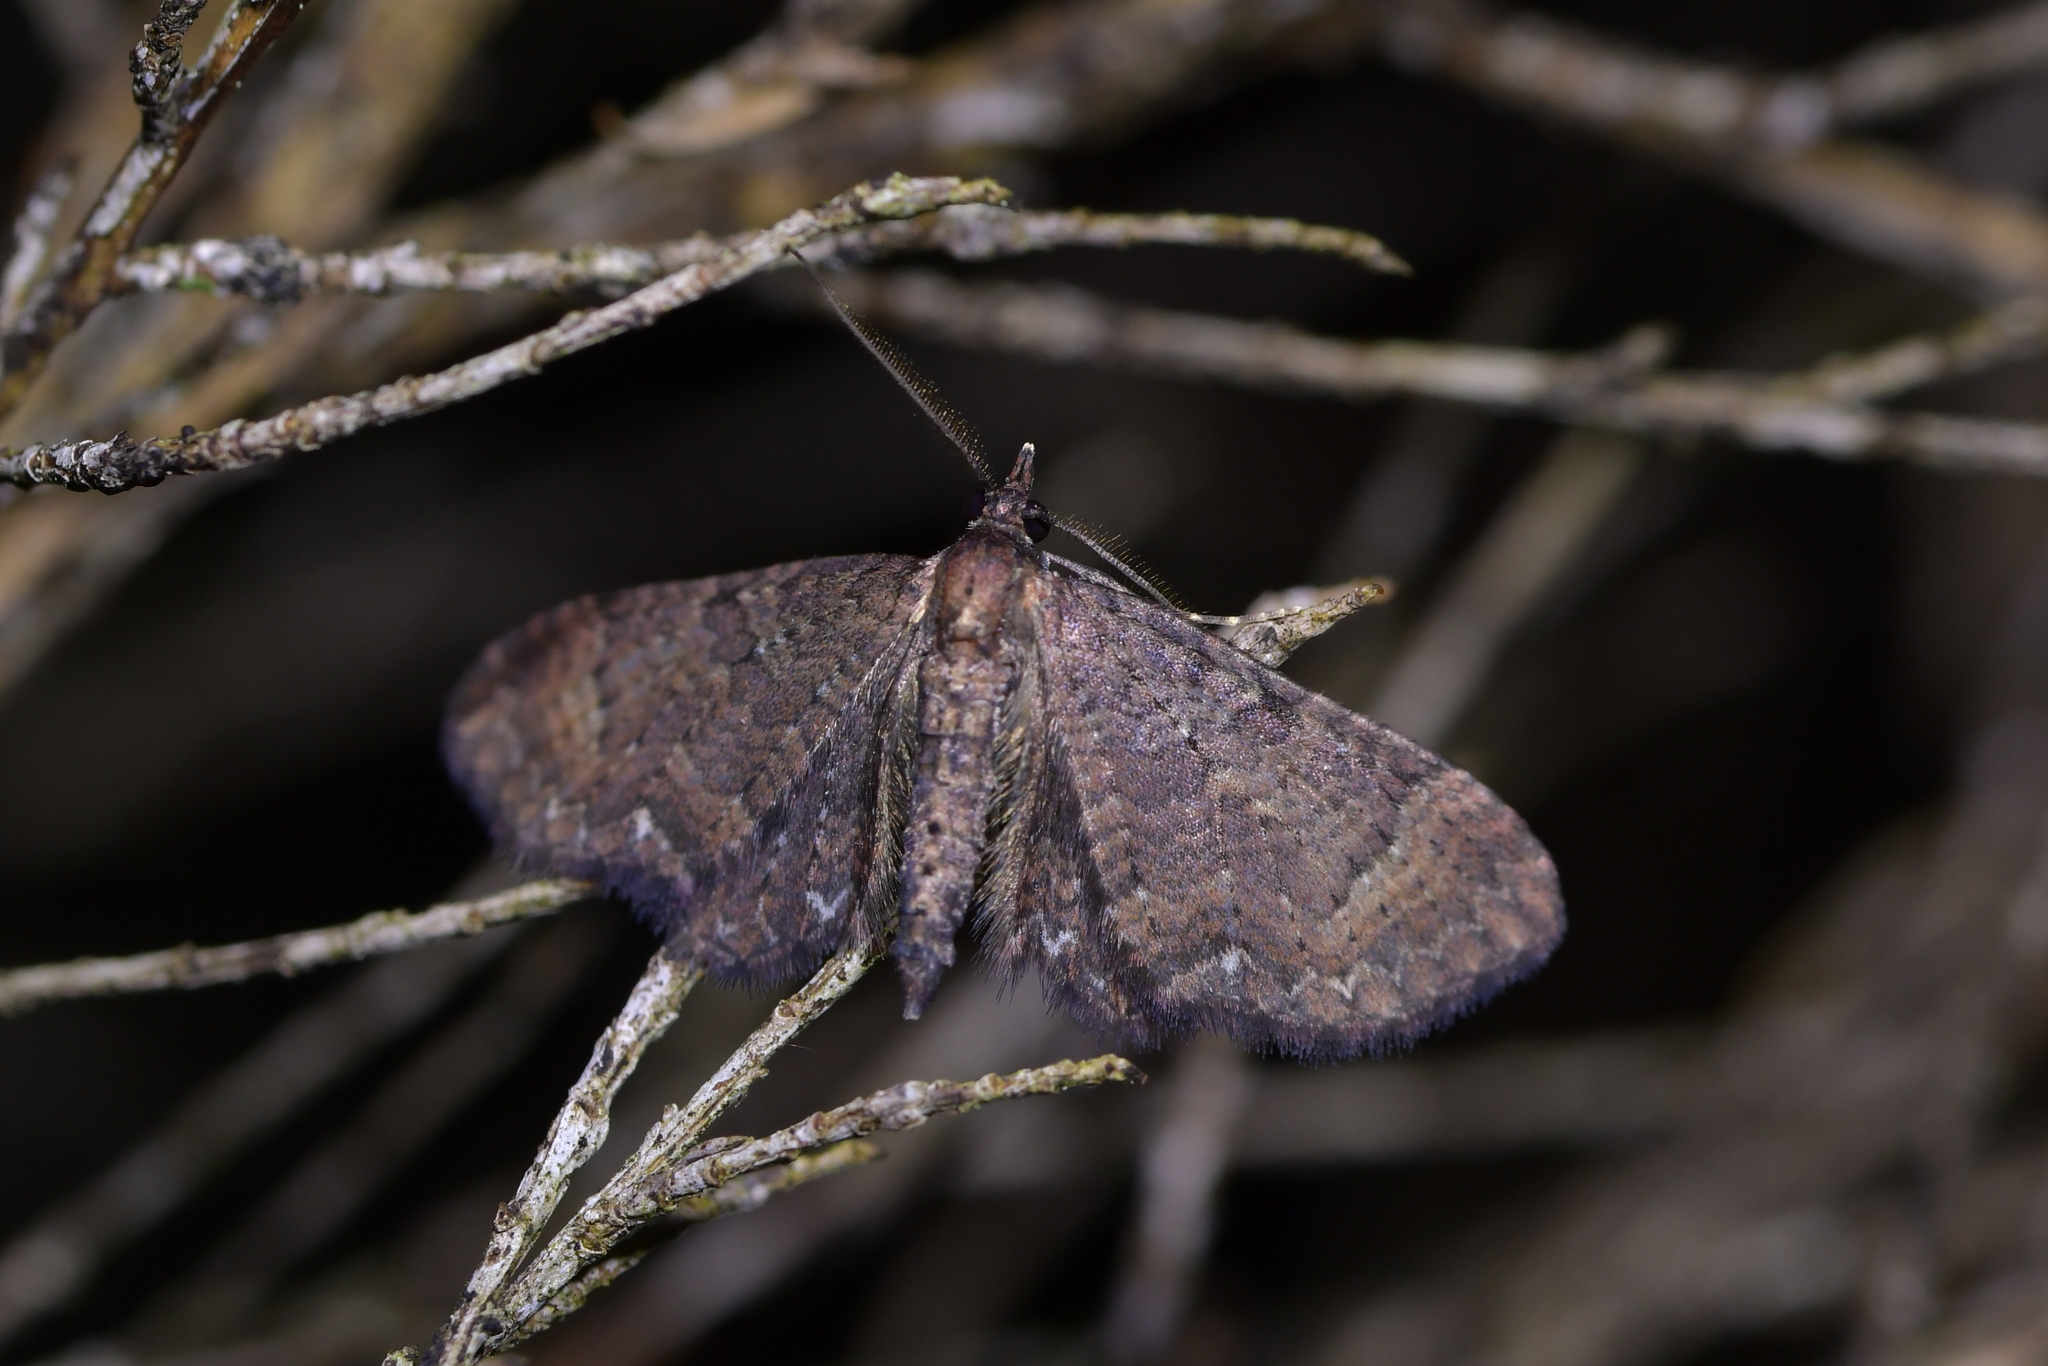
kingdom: Animalia
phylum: Arthropoda
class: Insecta
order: Lepidoptera
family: Geometridae
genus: Pasiphila
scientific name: Pasiphila dryas
